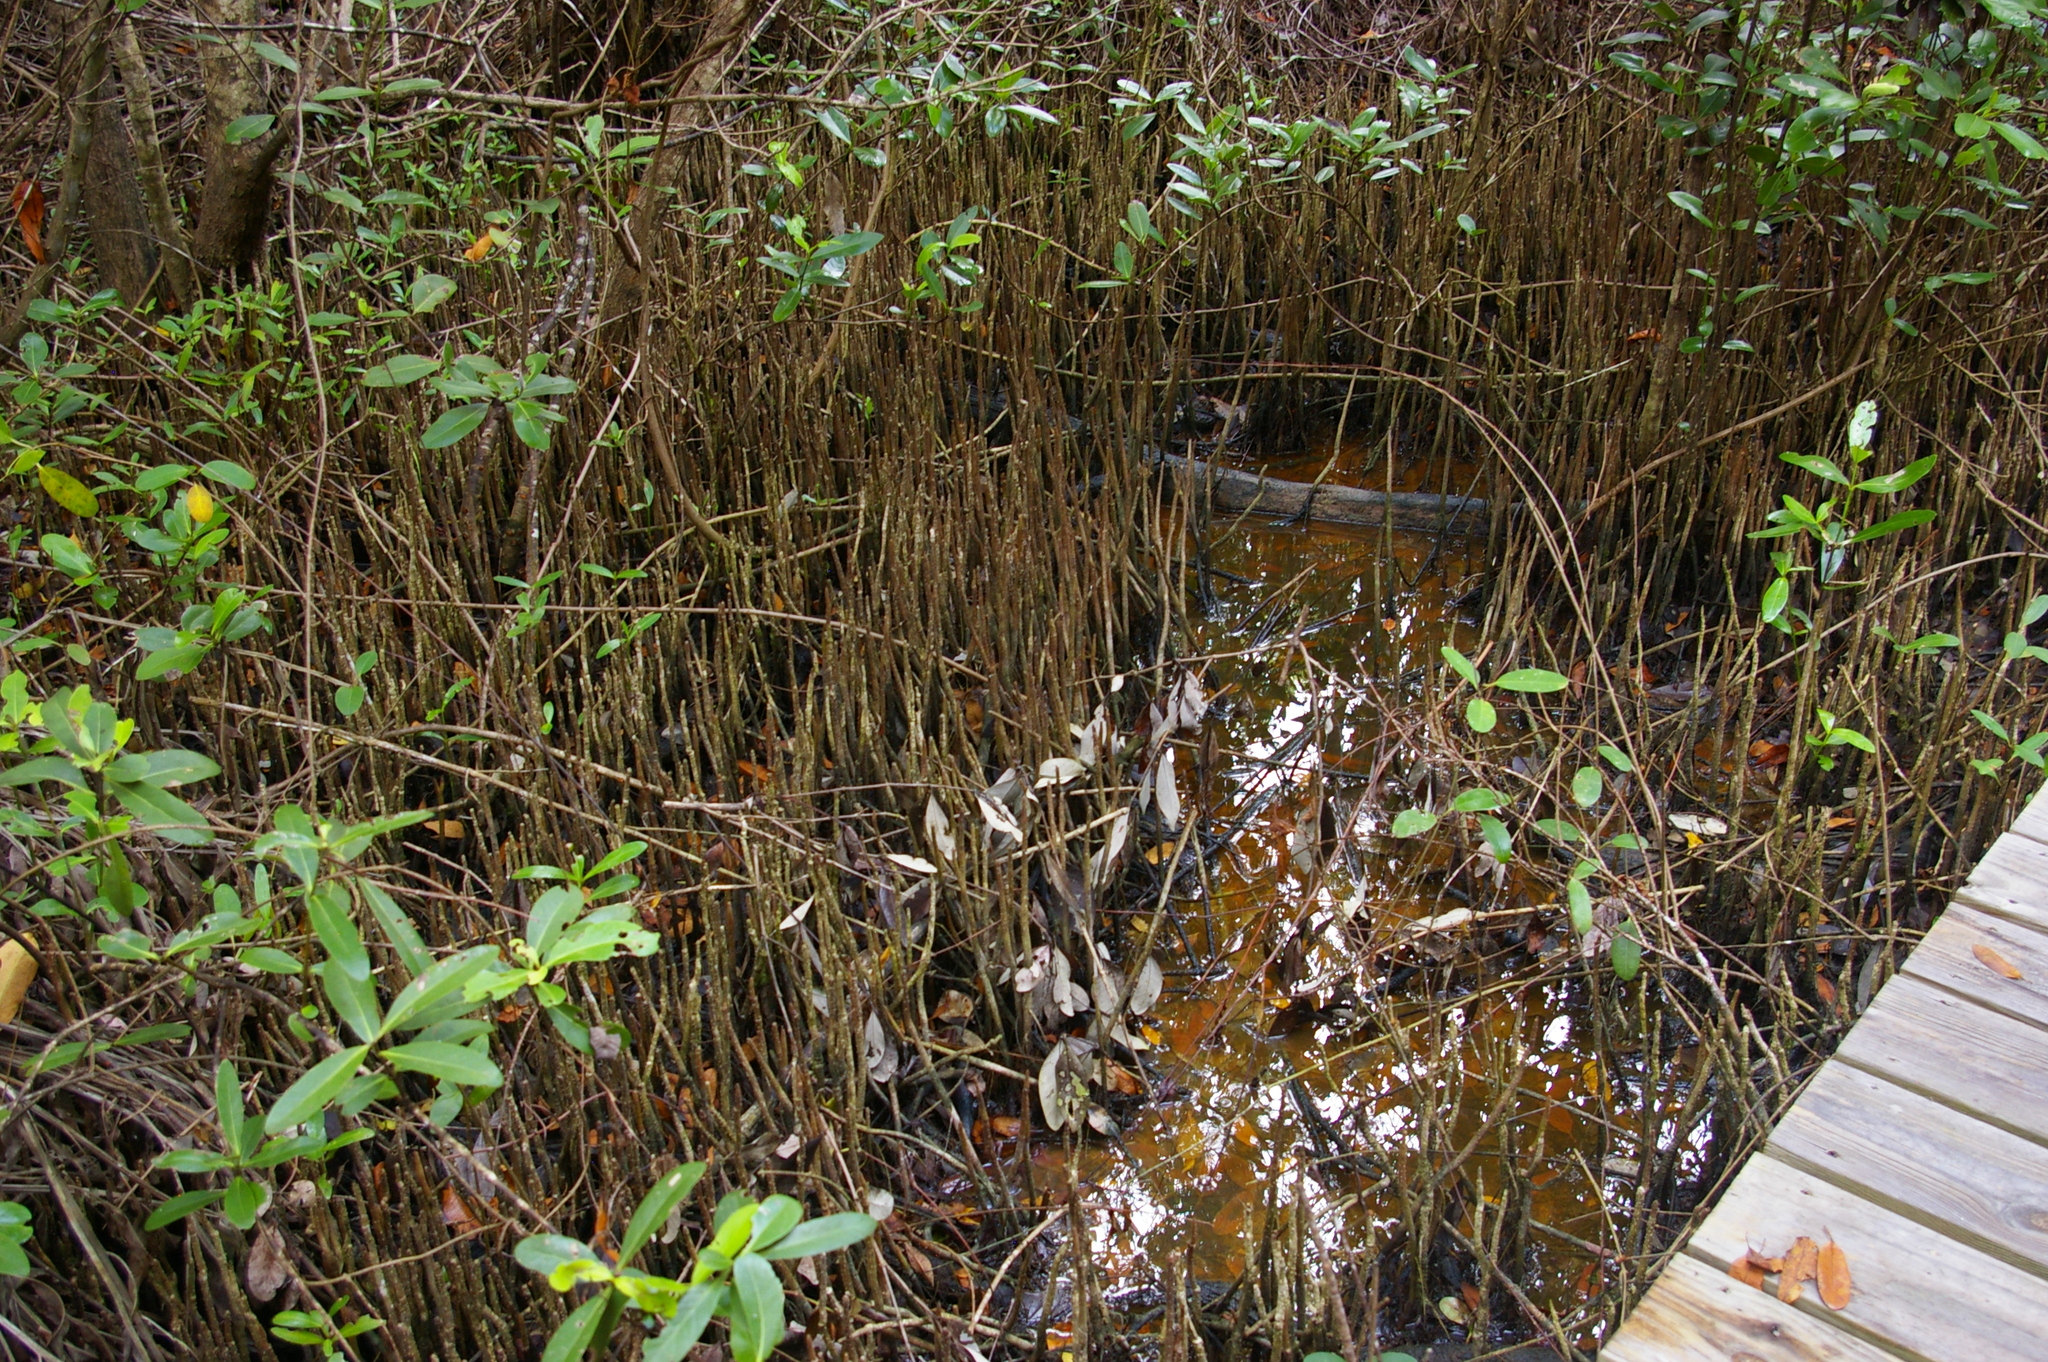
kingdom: Plantae
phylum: Tracheophyta
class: Magnoliopsida
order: Lamiales
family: Acanthaceae
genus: Avicennia
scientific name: Avicennia germinans
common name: Black mangrove
